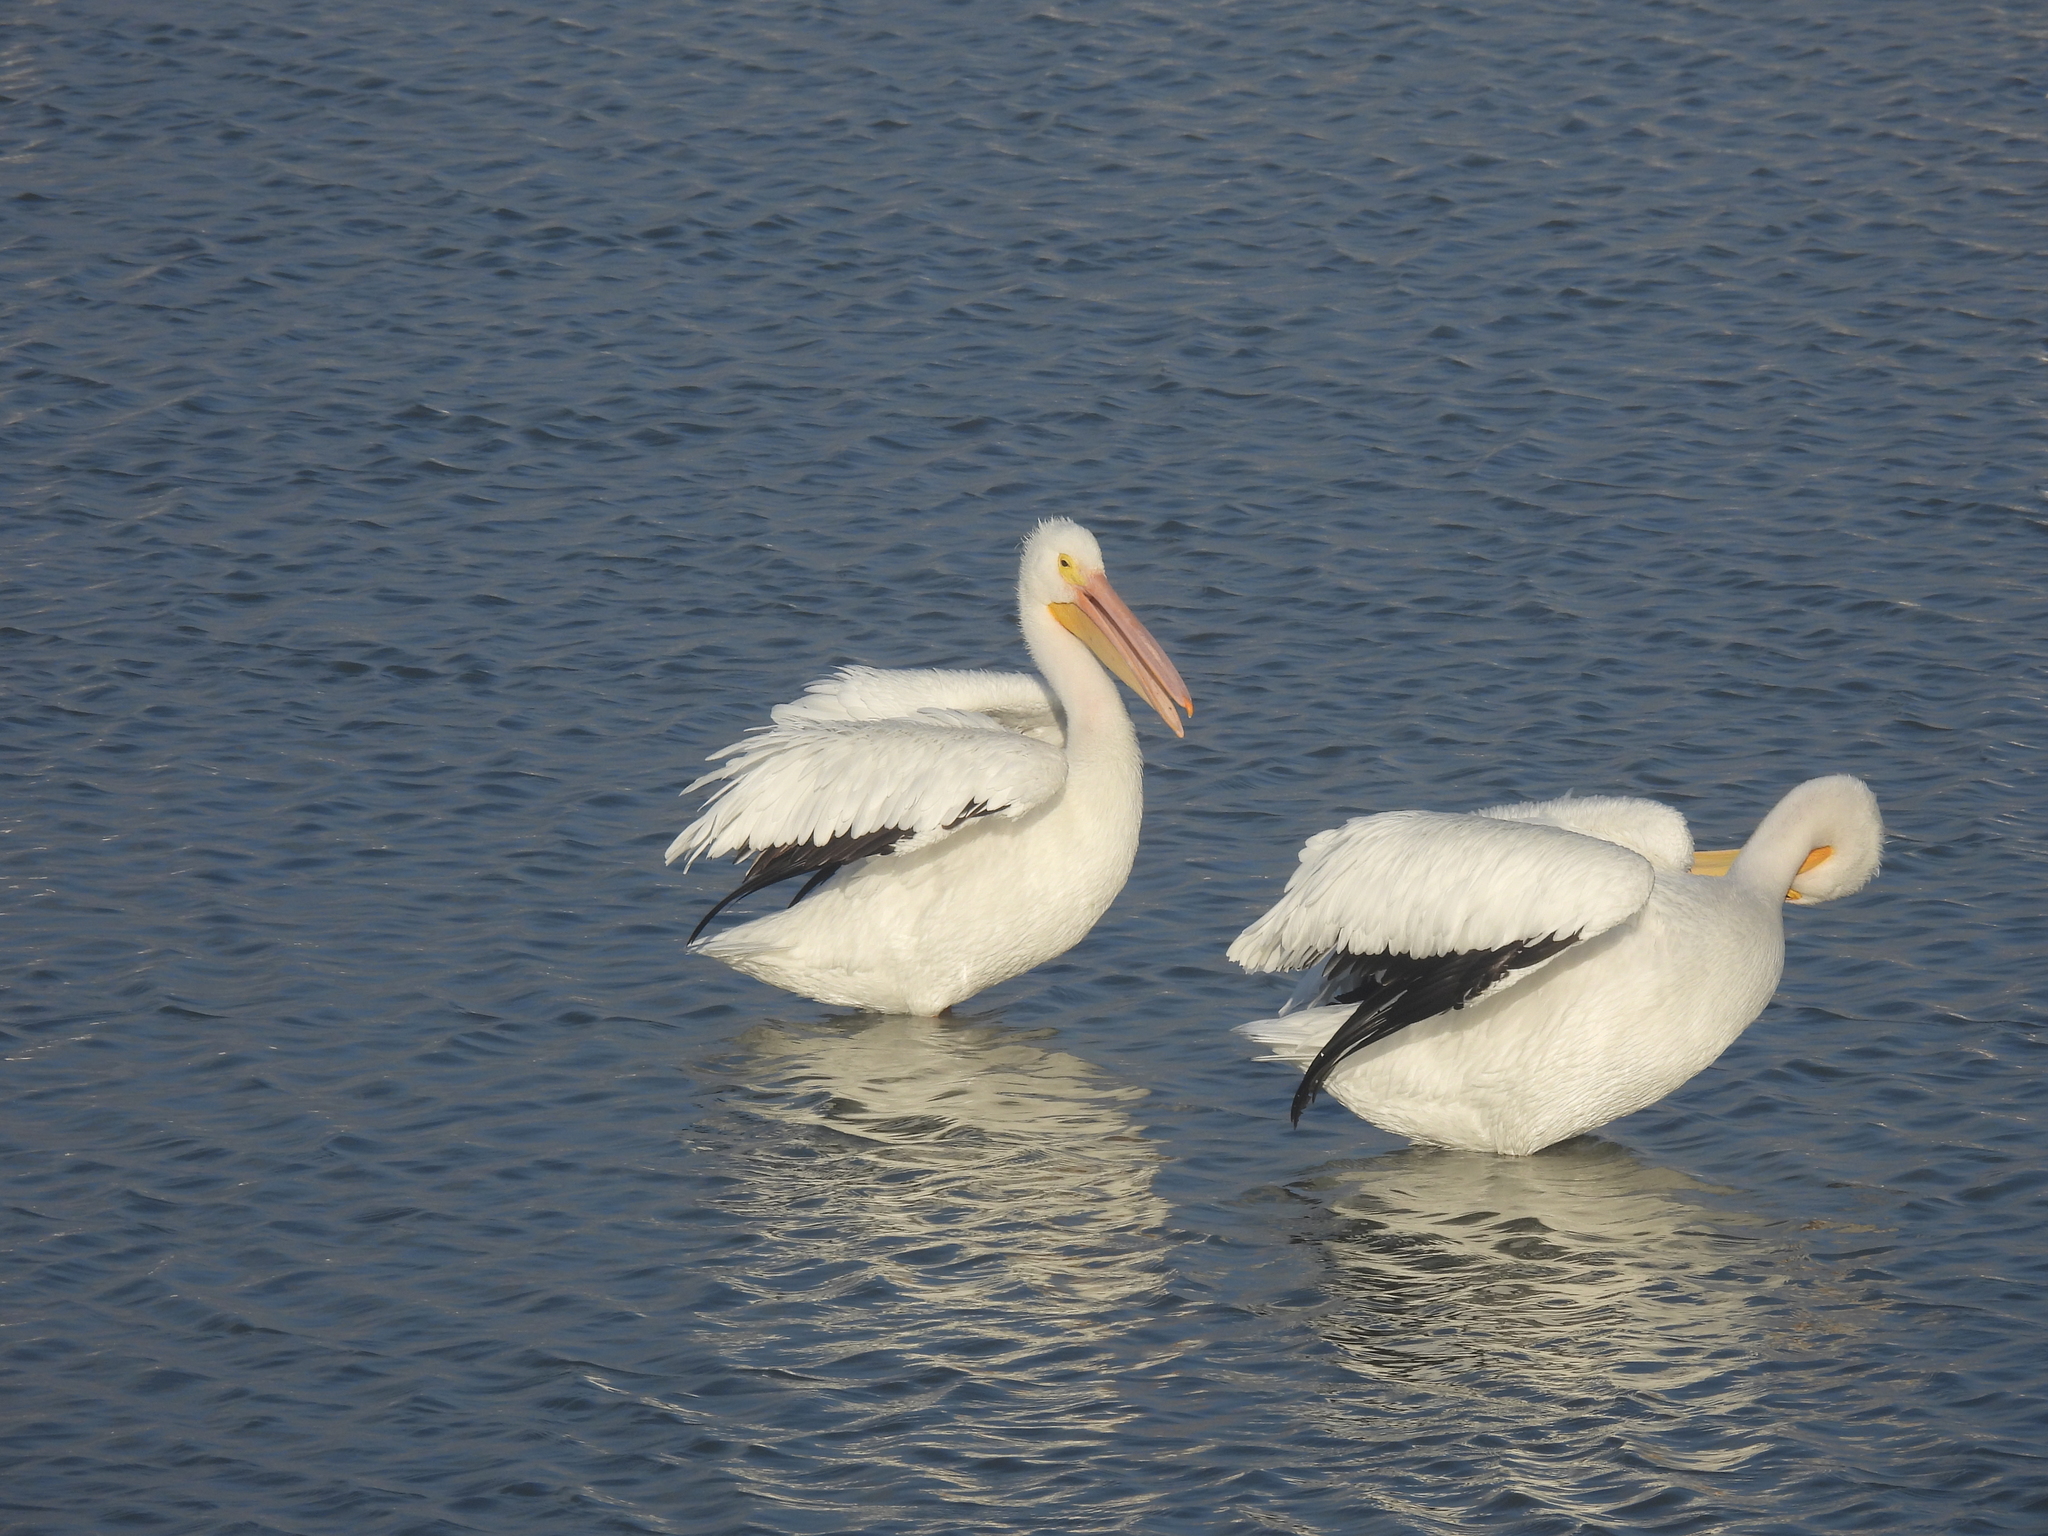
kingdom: Animalia
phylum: Chordata
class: Aves
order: Pelecaniformes
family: Pelecanidae
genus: Pelecanus
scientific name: Pelecanus erythrorhynchos
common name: American white pelican
